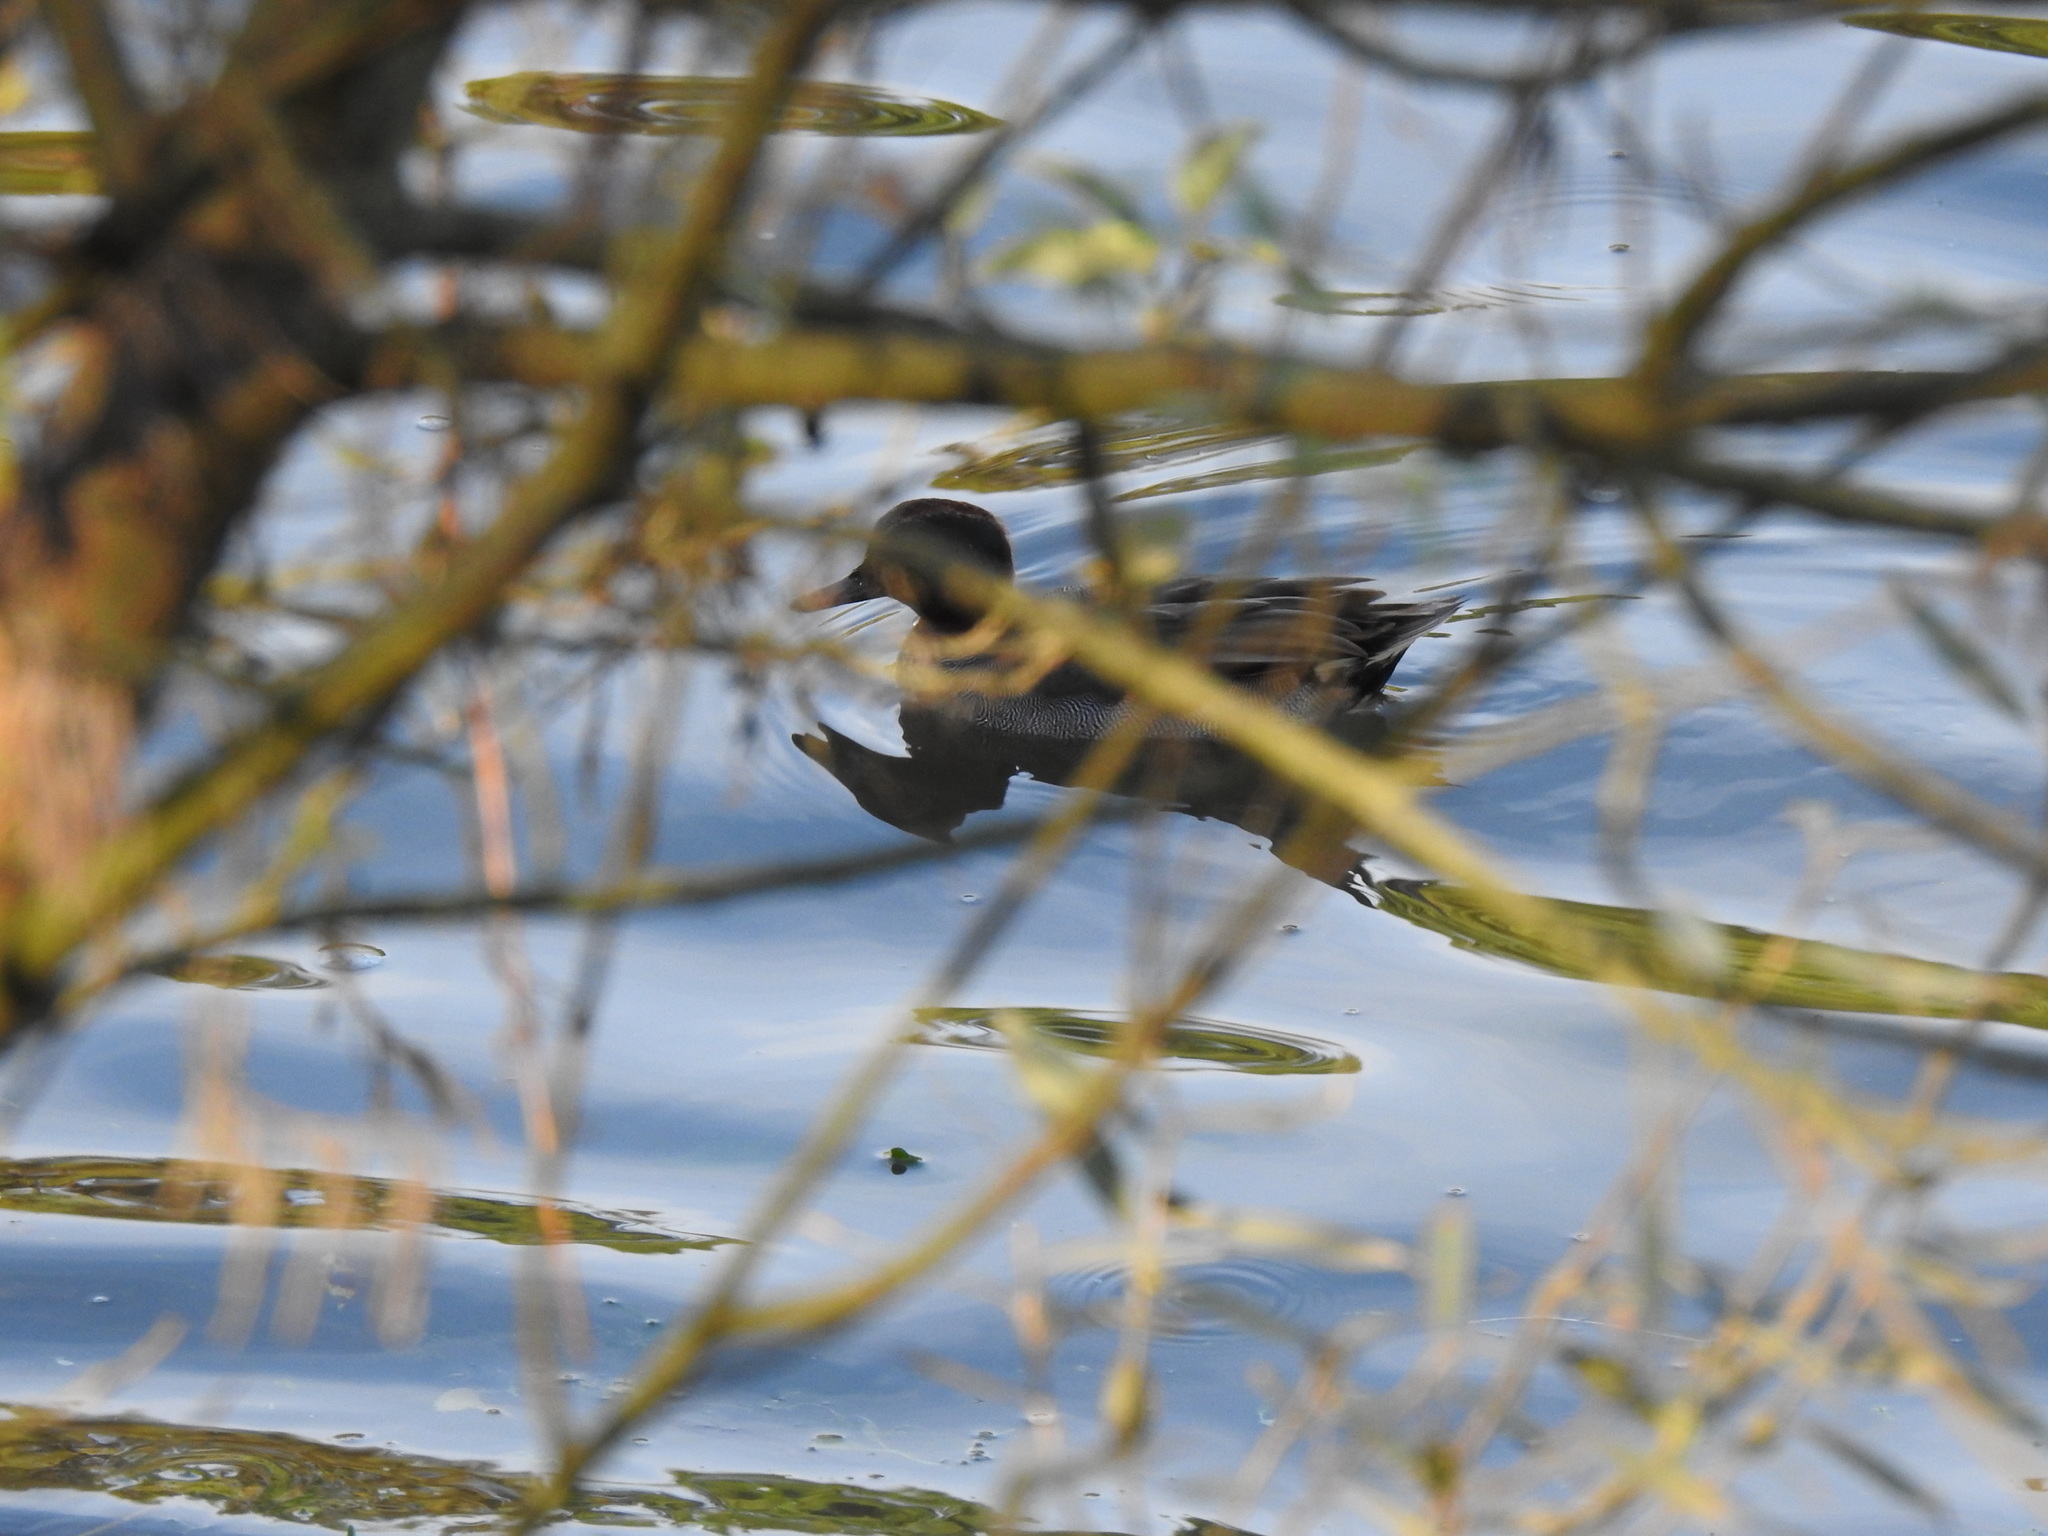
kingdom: Animalia
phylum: Chordata
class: Aves
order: Anseriformes
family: Anatidae
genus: Anas
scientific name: Anas crecca
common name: Eurasian teal
